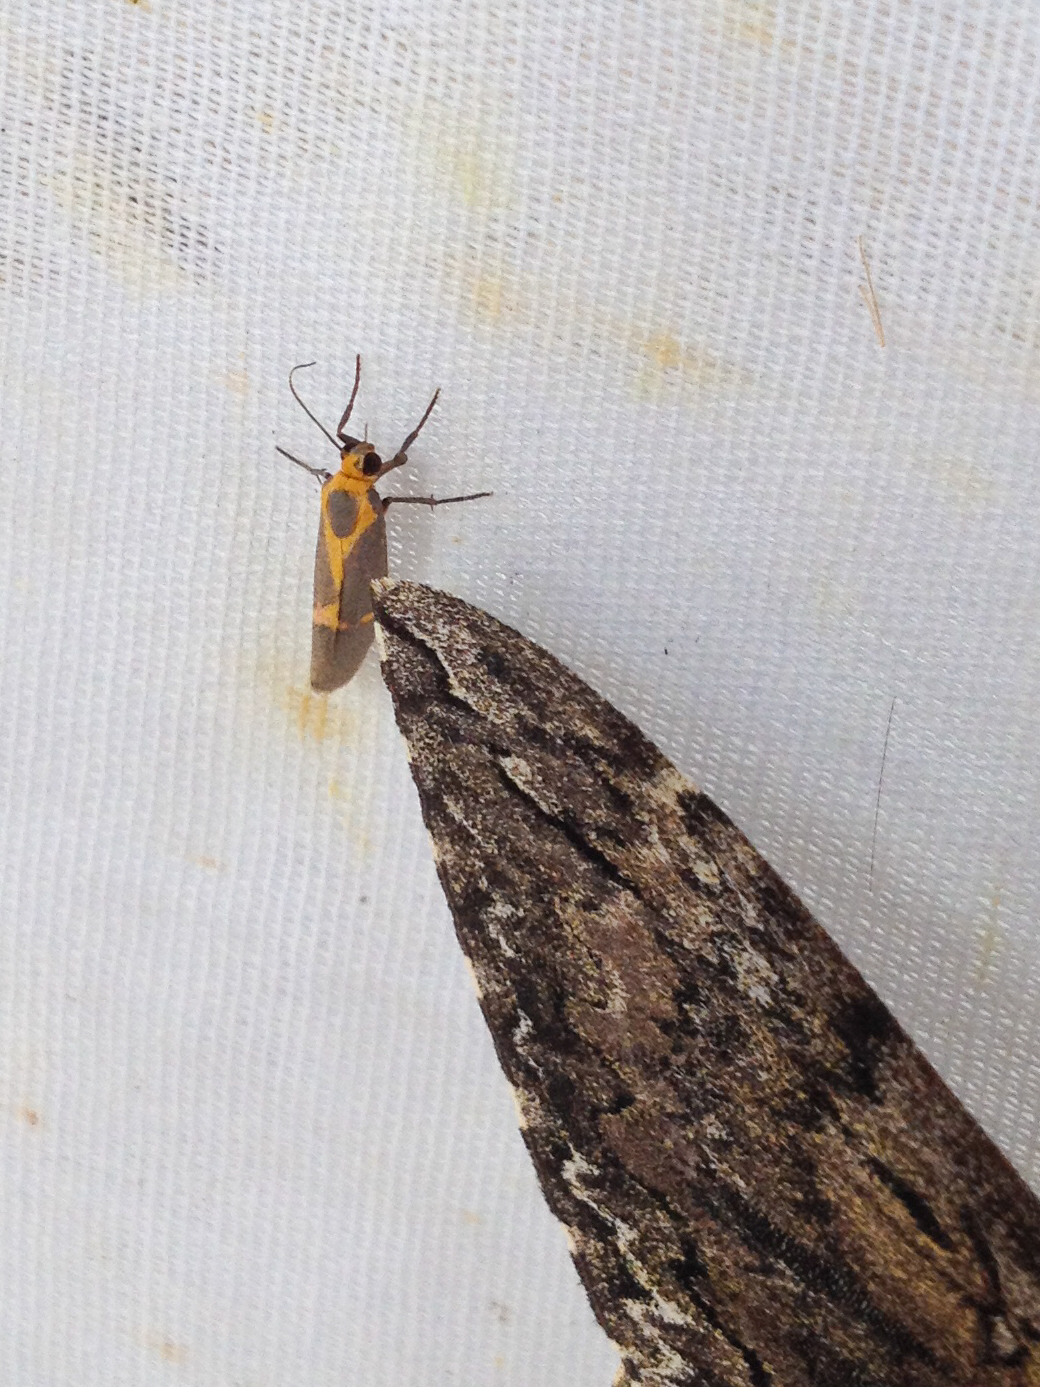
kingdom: Animalia
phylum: Arthropoda
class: Insecta
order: Lepidoptera
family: Erebidae
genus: Cisthene
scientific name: Cisthene tenuifascia
